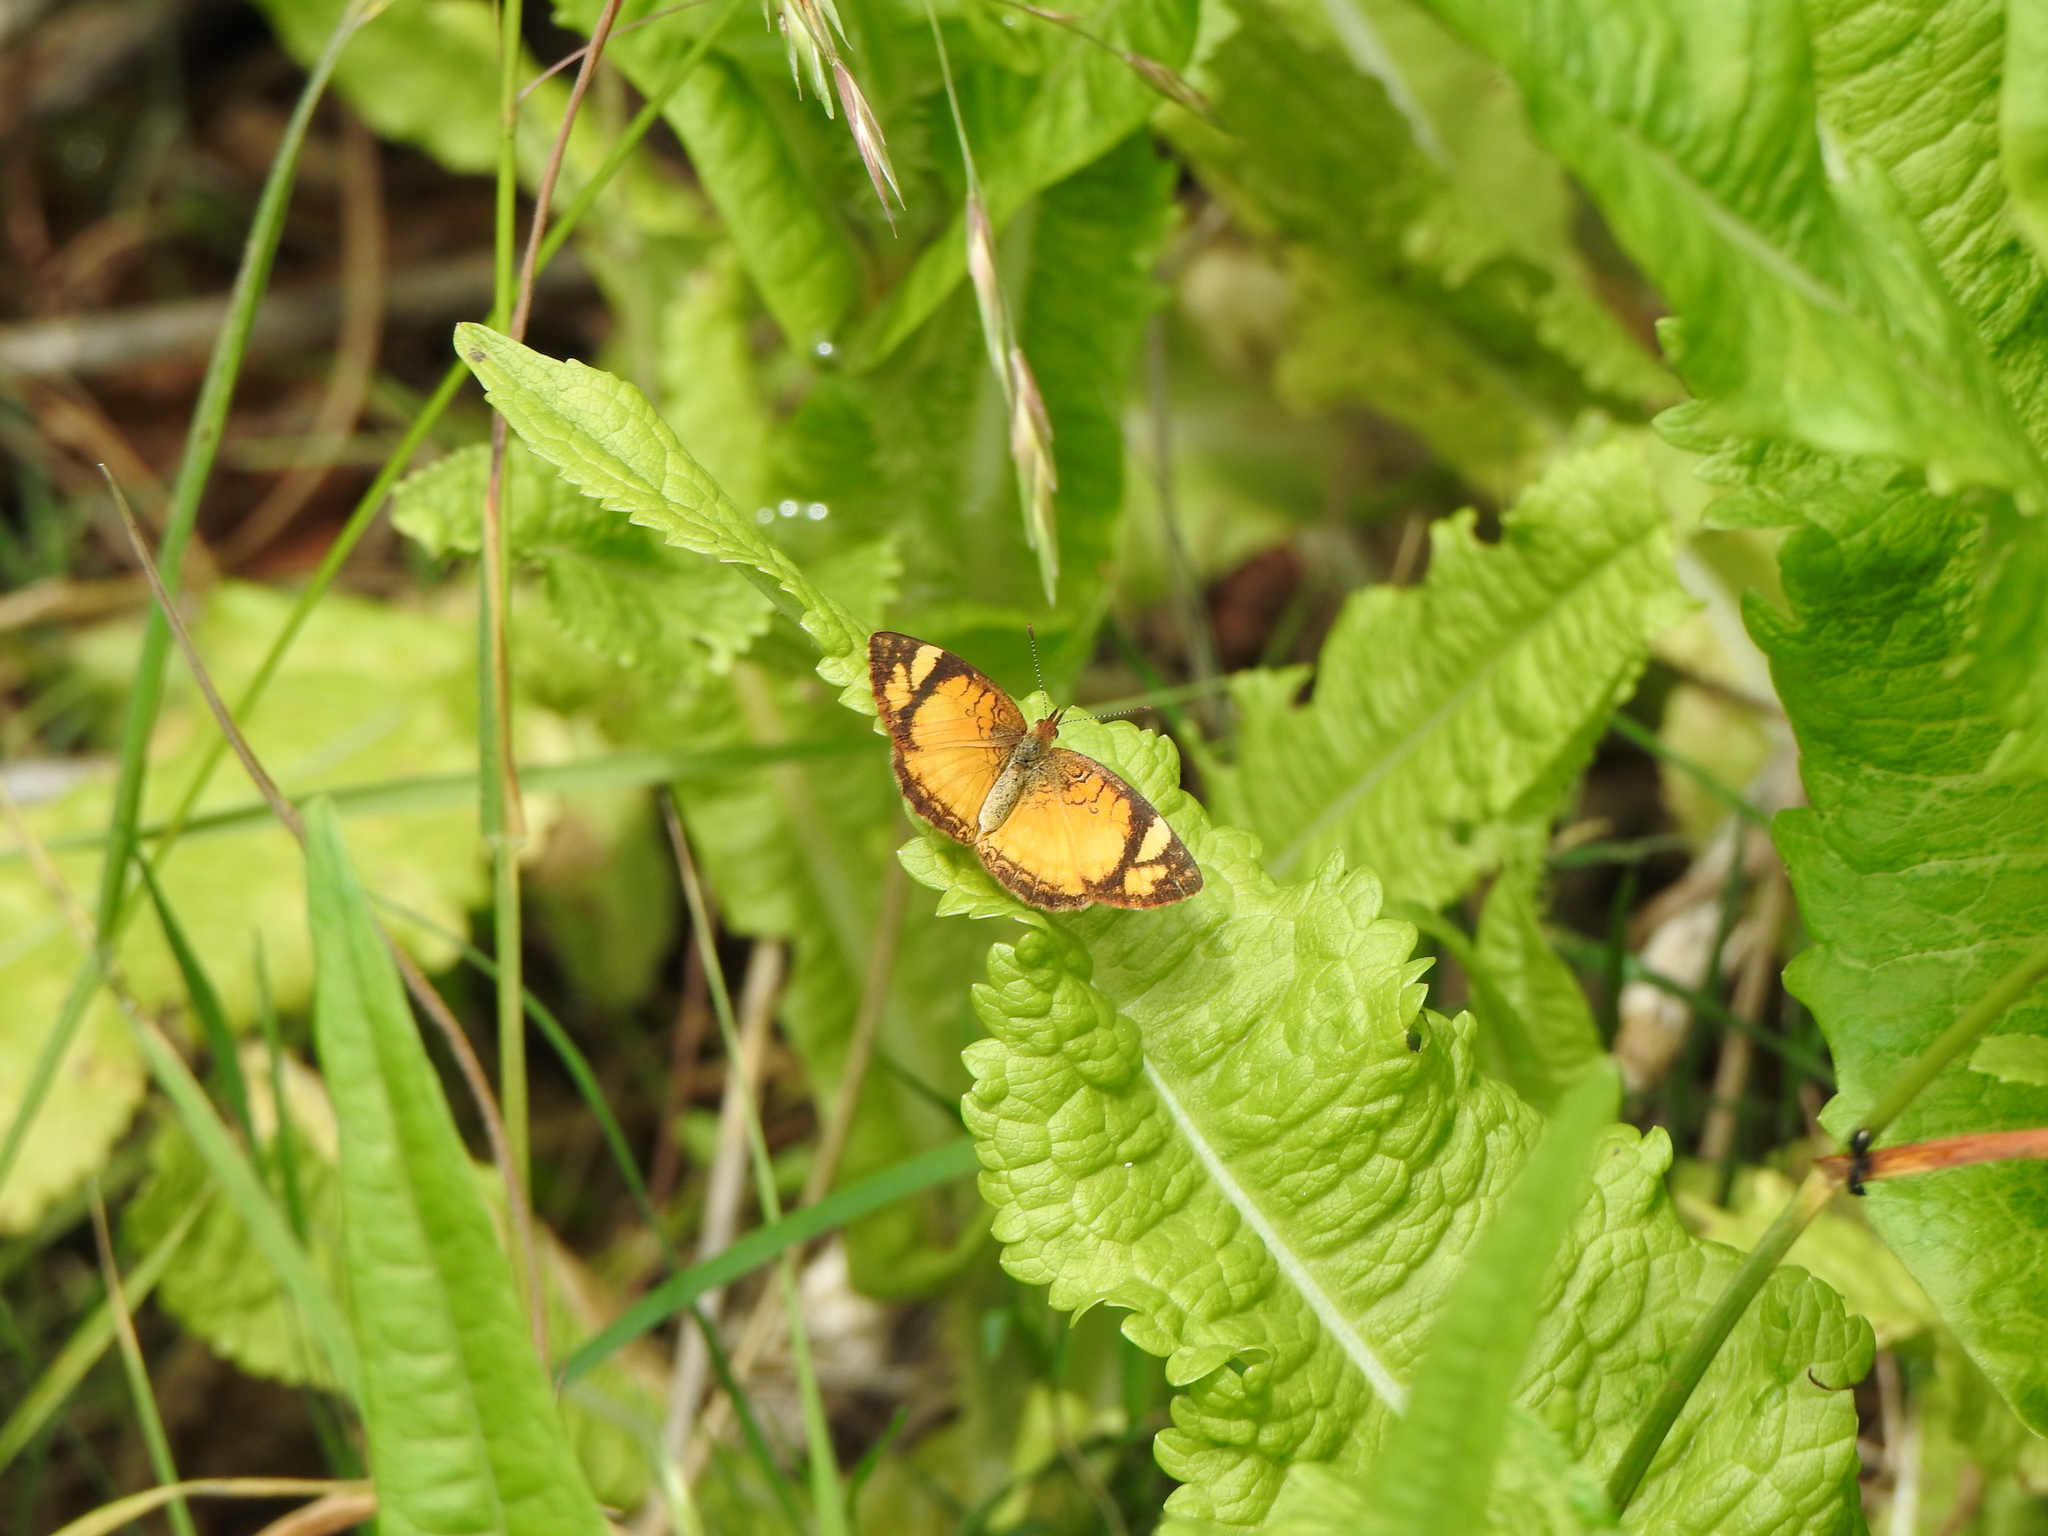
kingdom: Animalia
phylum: Arthropoda
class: Insecta
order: Lepidoptera
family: Nymphalidae
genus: Tegosa
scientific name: Tegosa claudina
